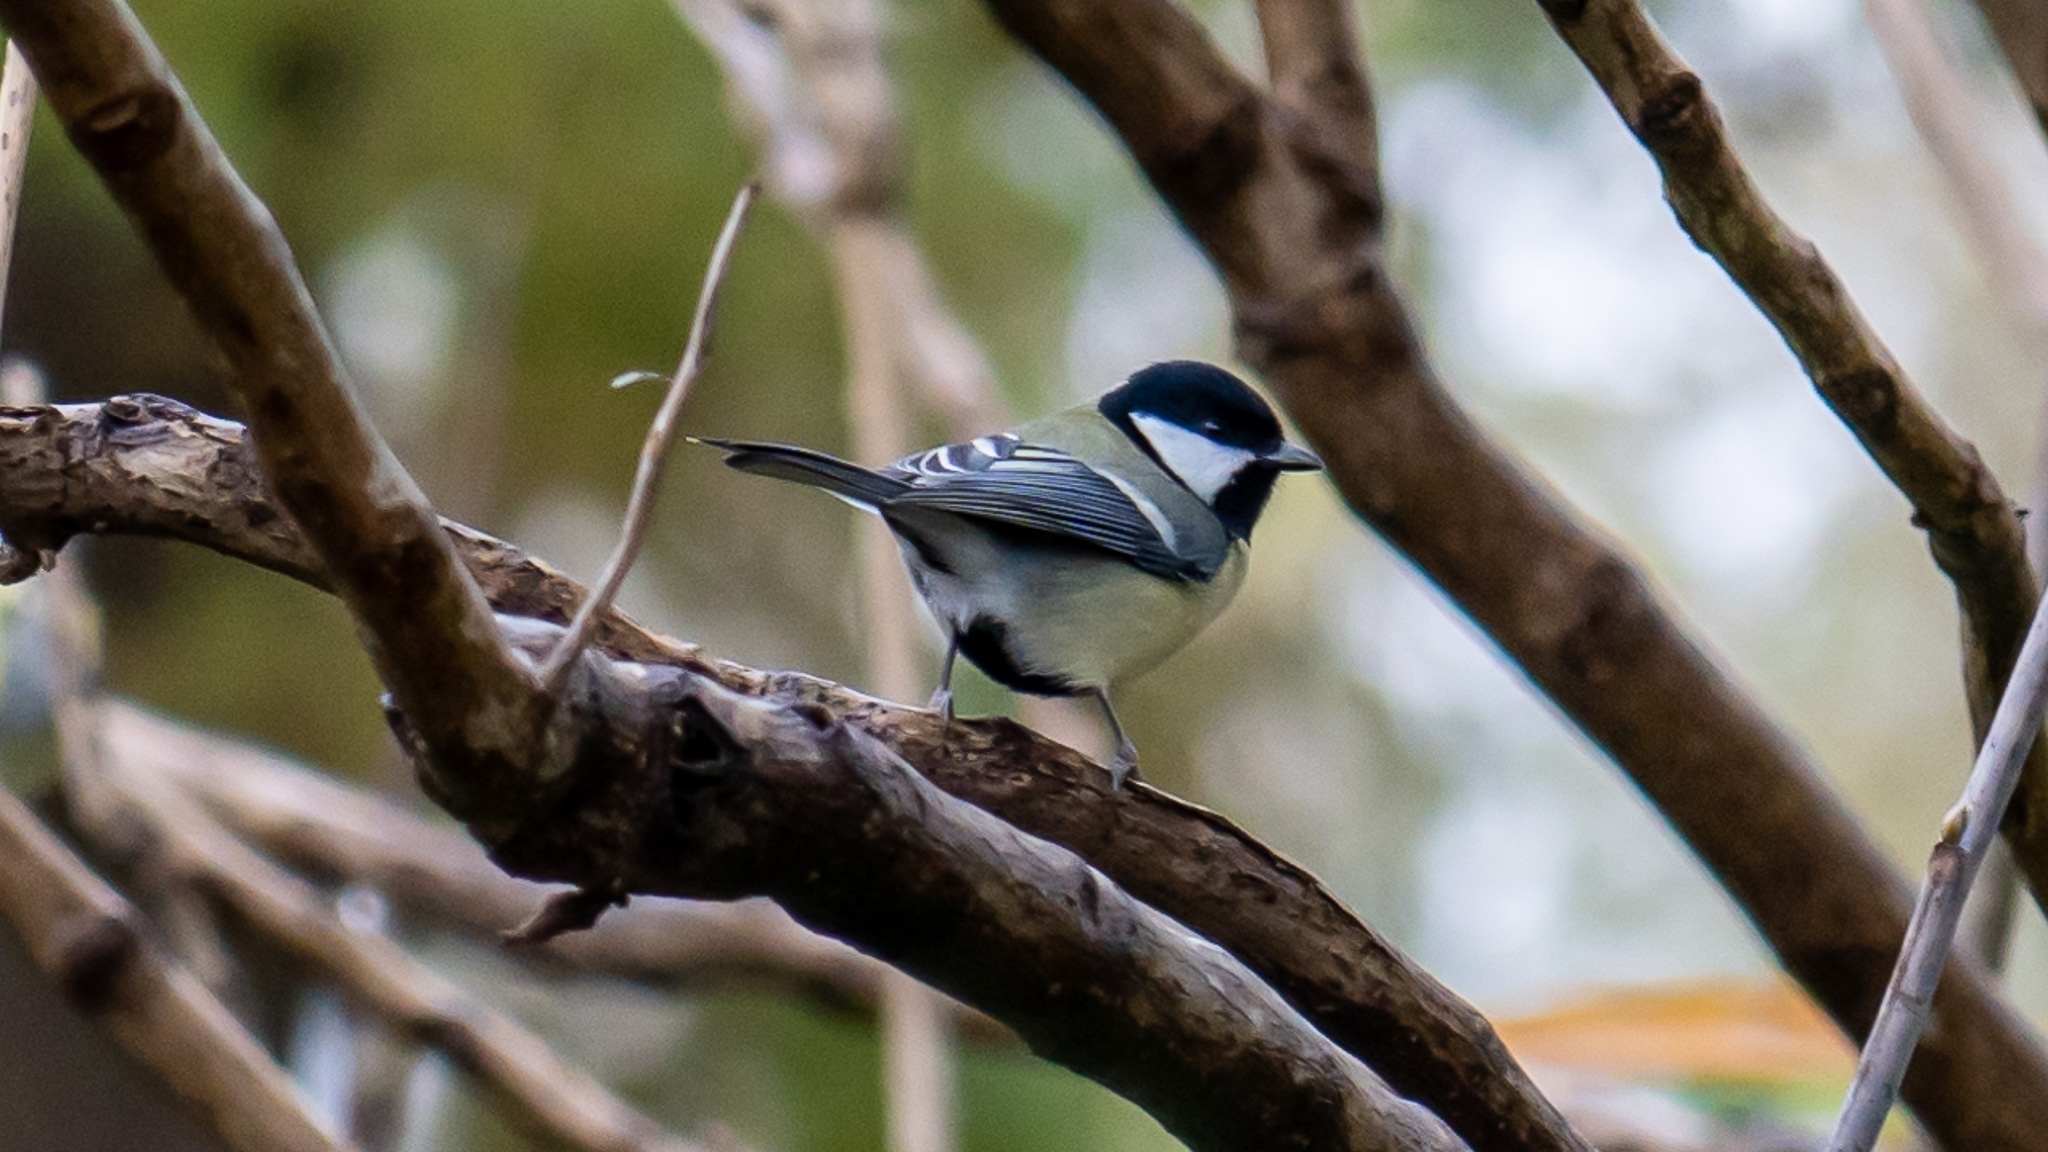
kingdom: Animalia
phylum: Chordata
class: Aves
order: Passeriformes
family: Paridae
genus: Parus
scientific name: Parus major
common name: Great tit
